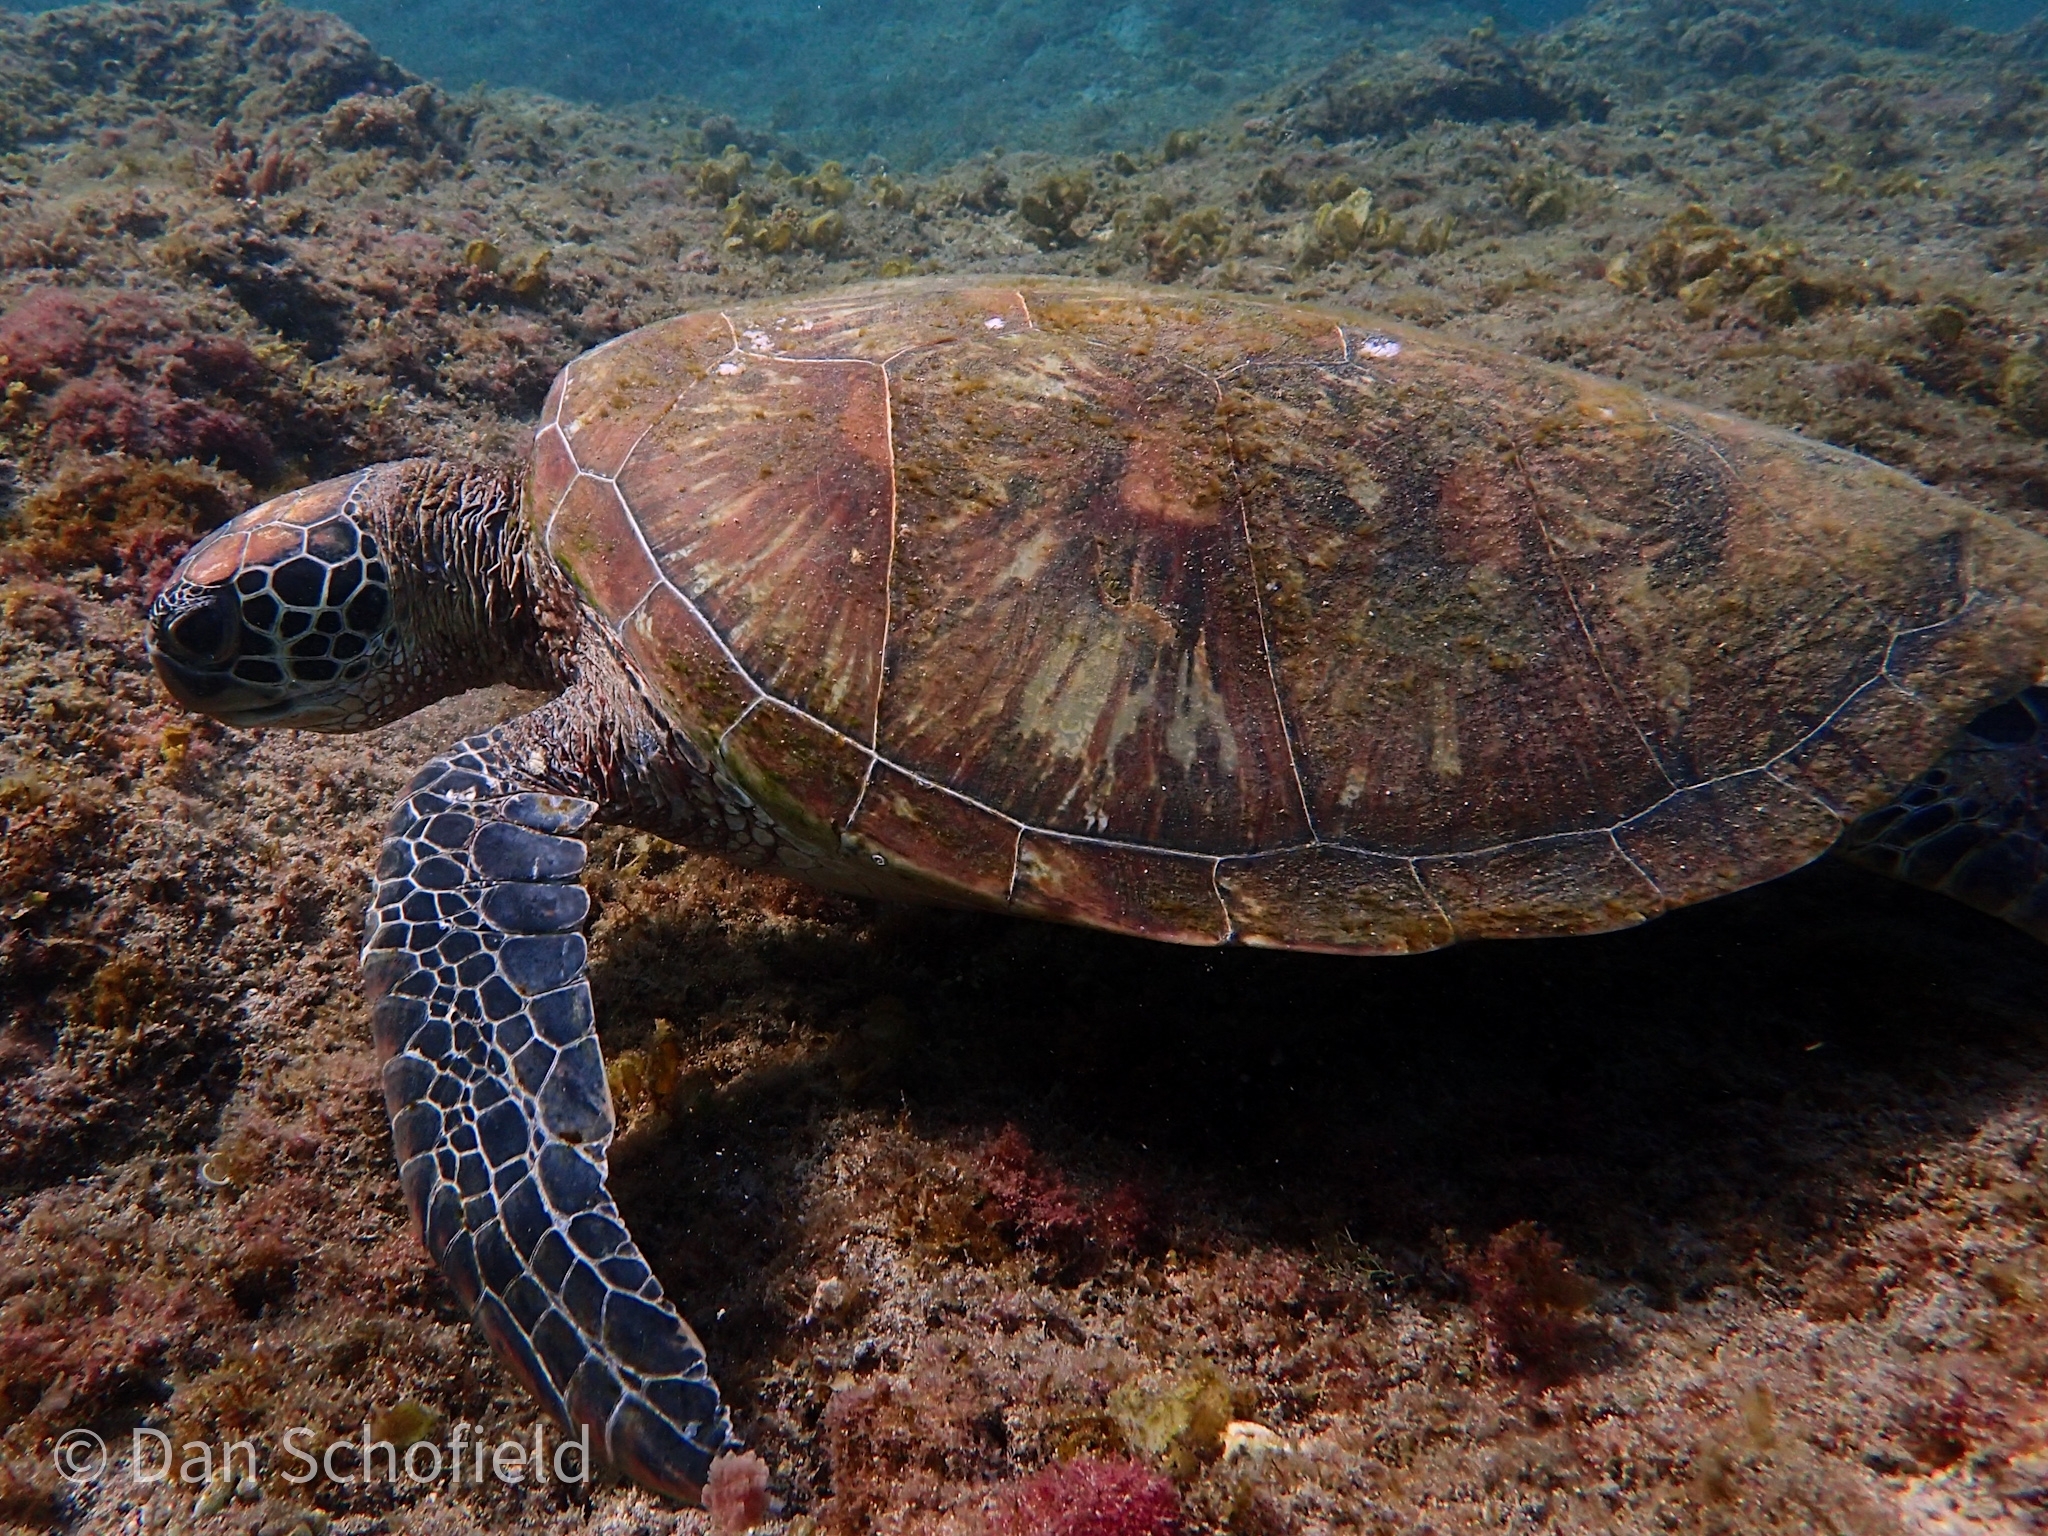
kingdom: Animalia
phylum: Chordata
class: Testudines
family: Cheloniidae
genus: Chelonia
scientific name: Chelonia mydas
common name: Green turtle
